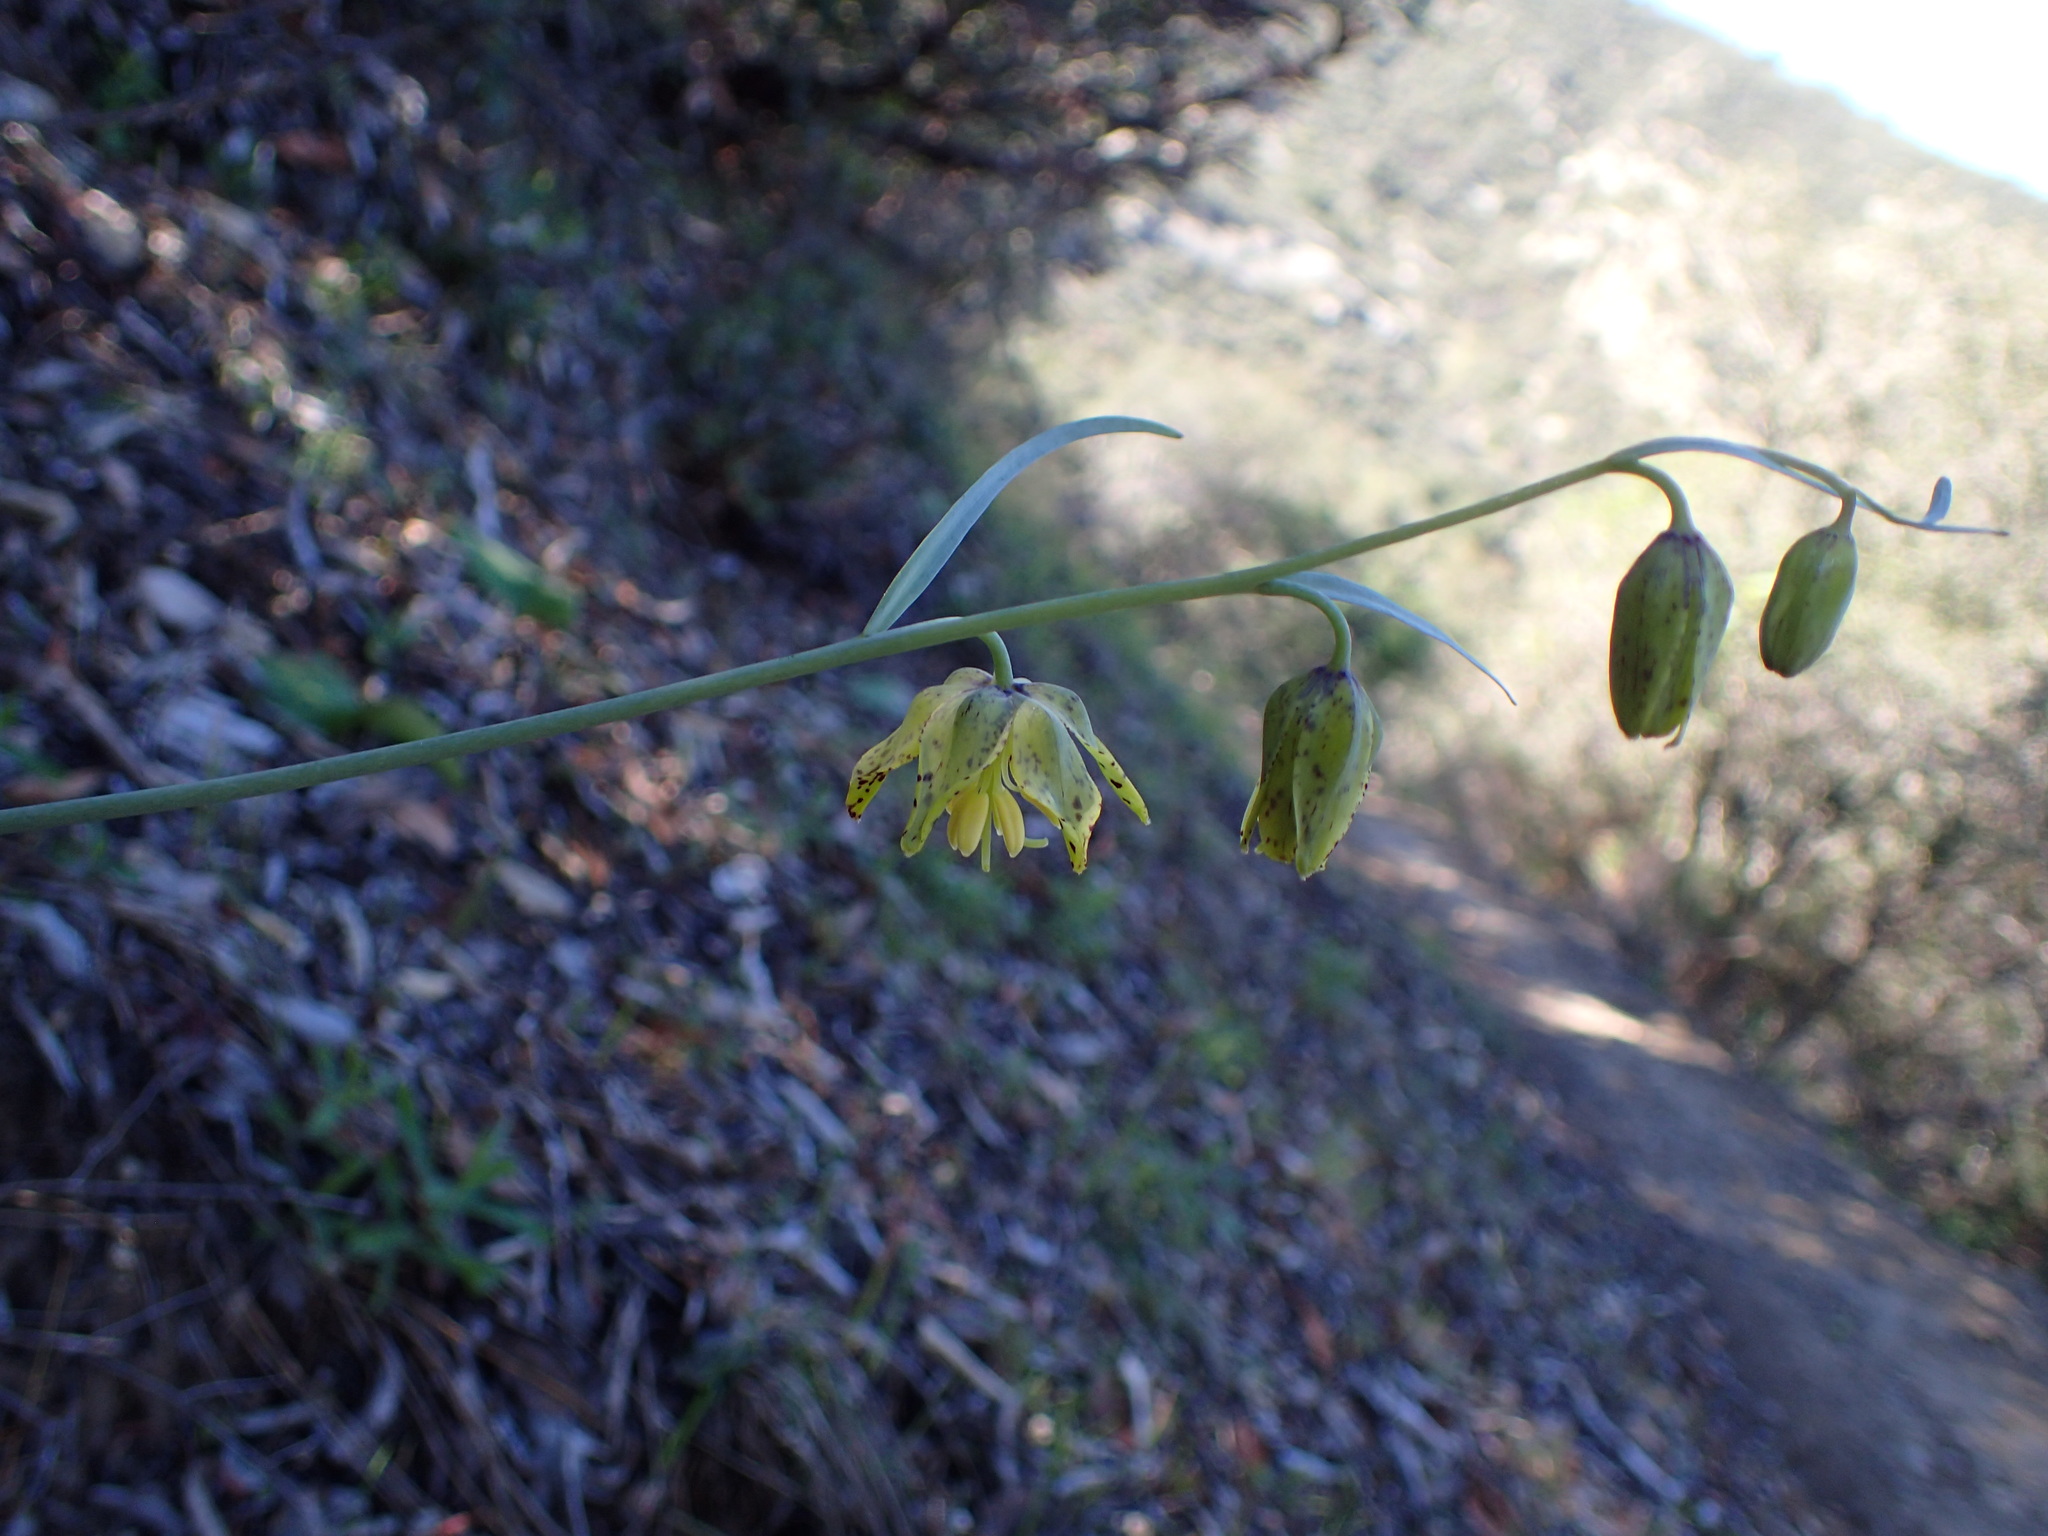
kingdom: Plantae
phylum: Tracheophyta
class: Liliopsida
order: Liliales
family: Liliaceae
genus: Fritillaria
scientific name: Fritillaria ojaiensis
